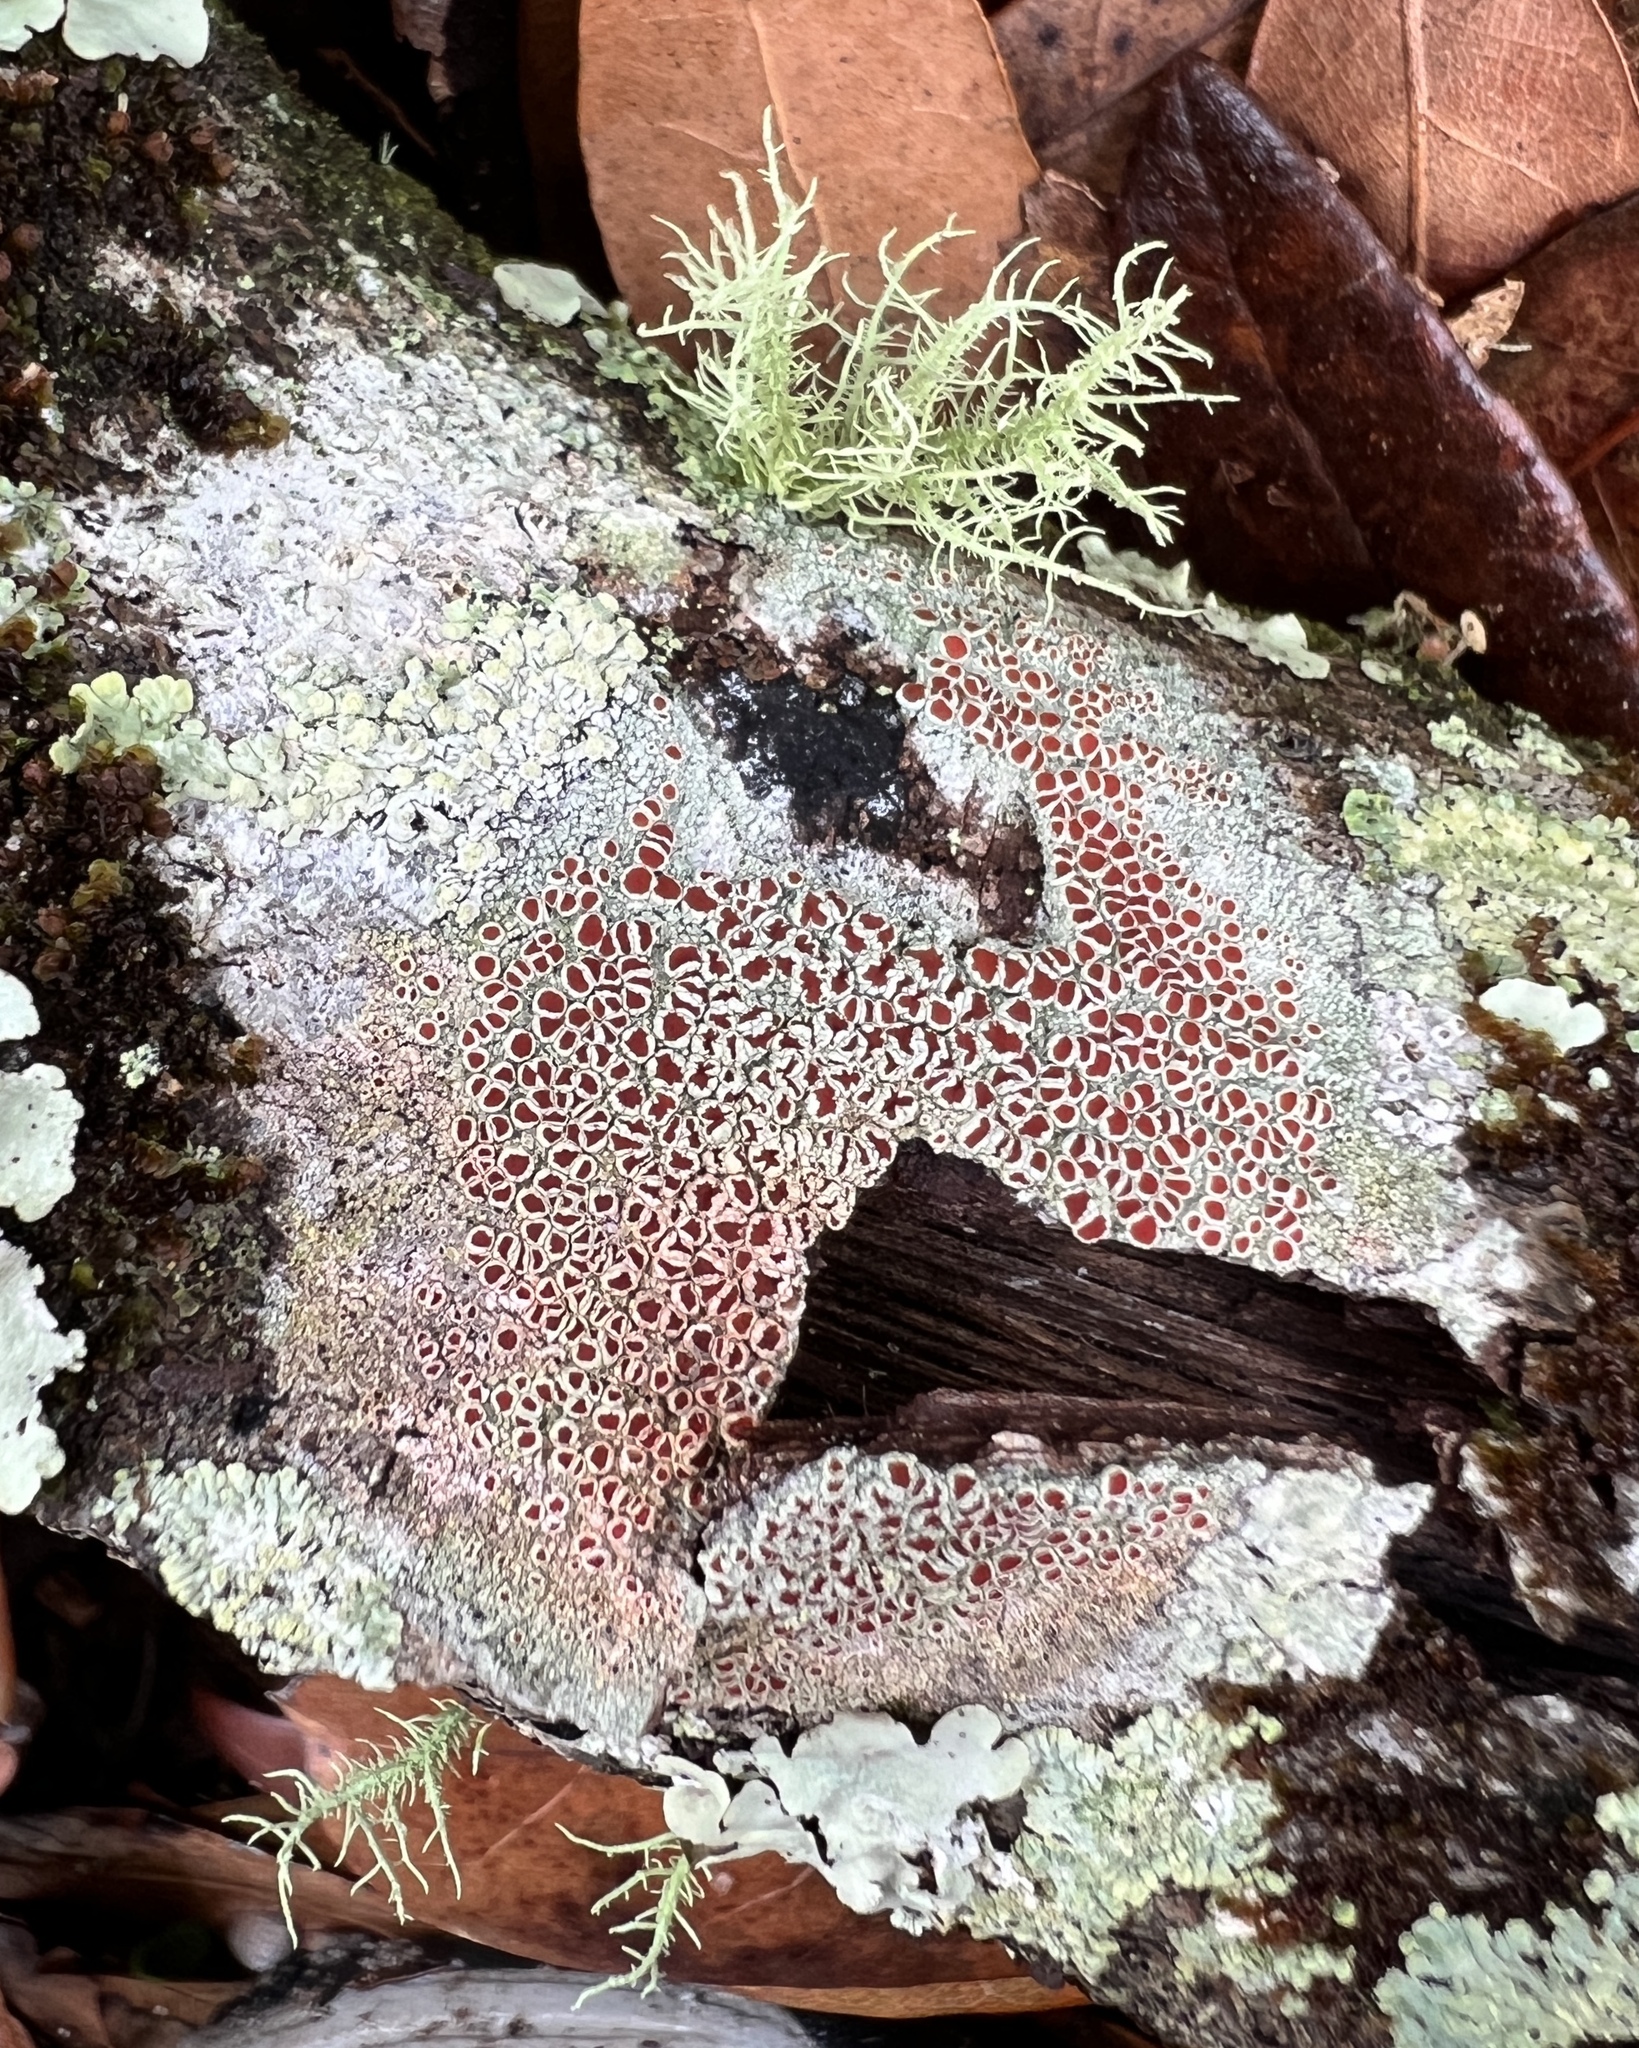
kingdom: Fungi
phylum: Ascomycota
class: Lecanoromycetes
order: Lecanorales
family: Haematommataceae
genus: Haematomma
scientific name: Haematomma
